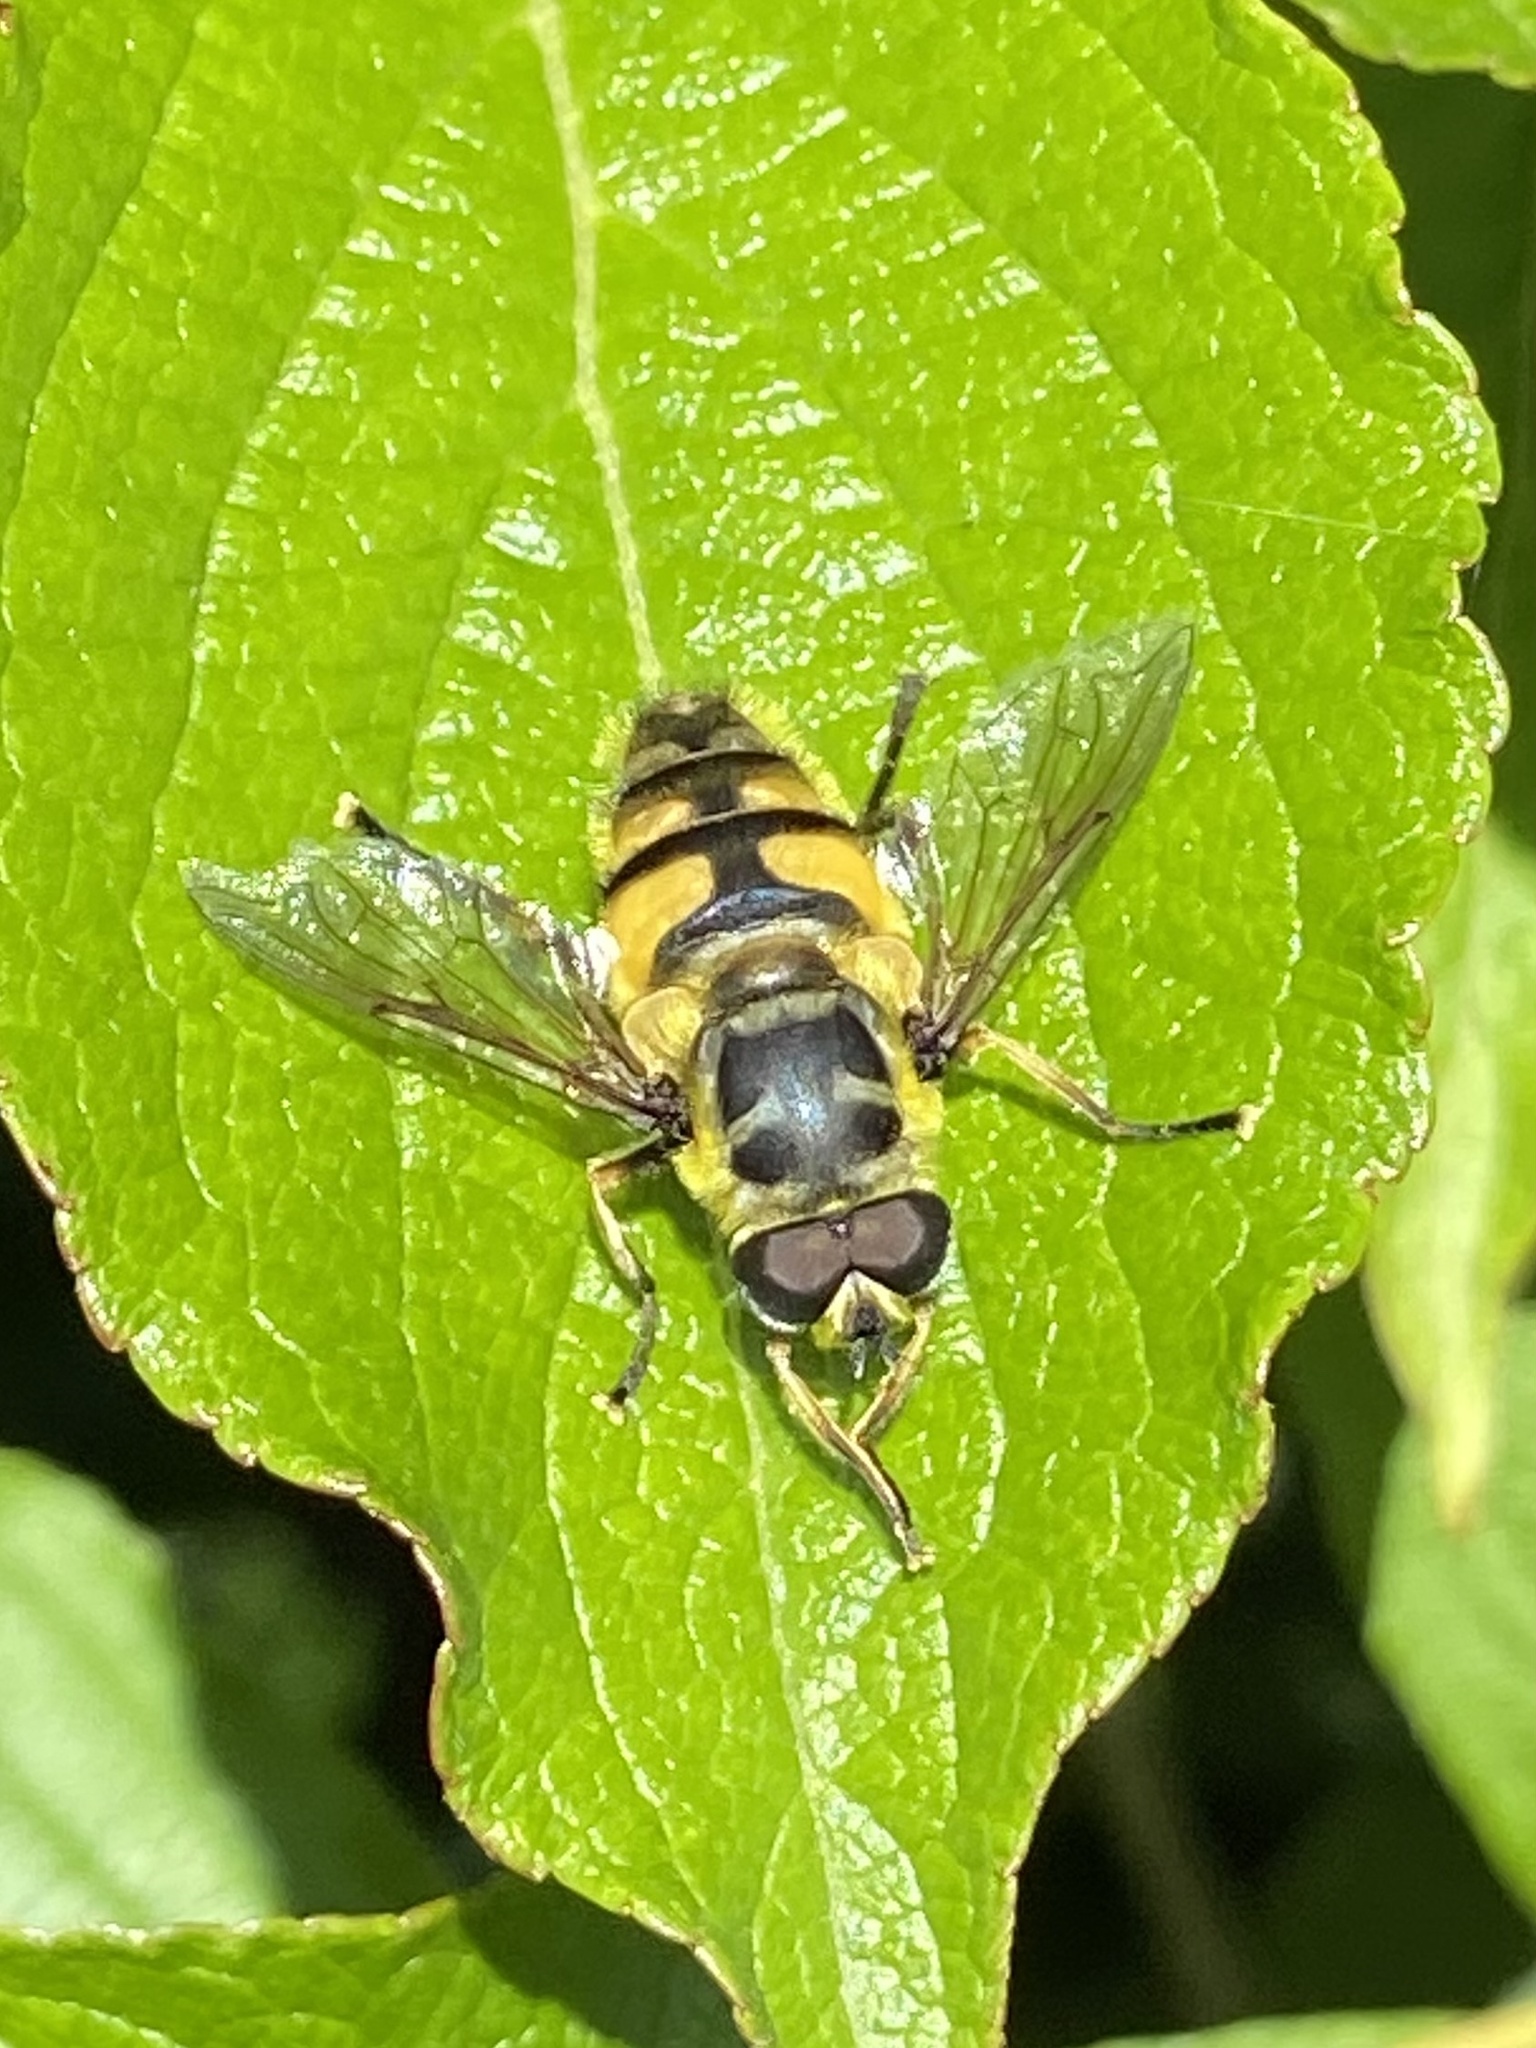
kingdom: Animalia
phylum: Arthropoda
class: Insecta
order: Diptera
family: Syrphidae
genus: Myathropa
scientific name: Myathropa florea
